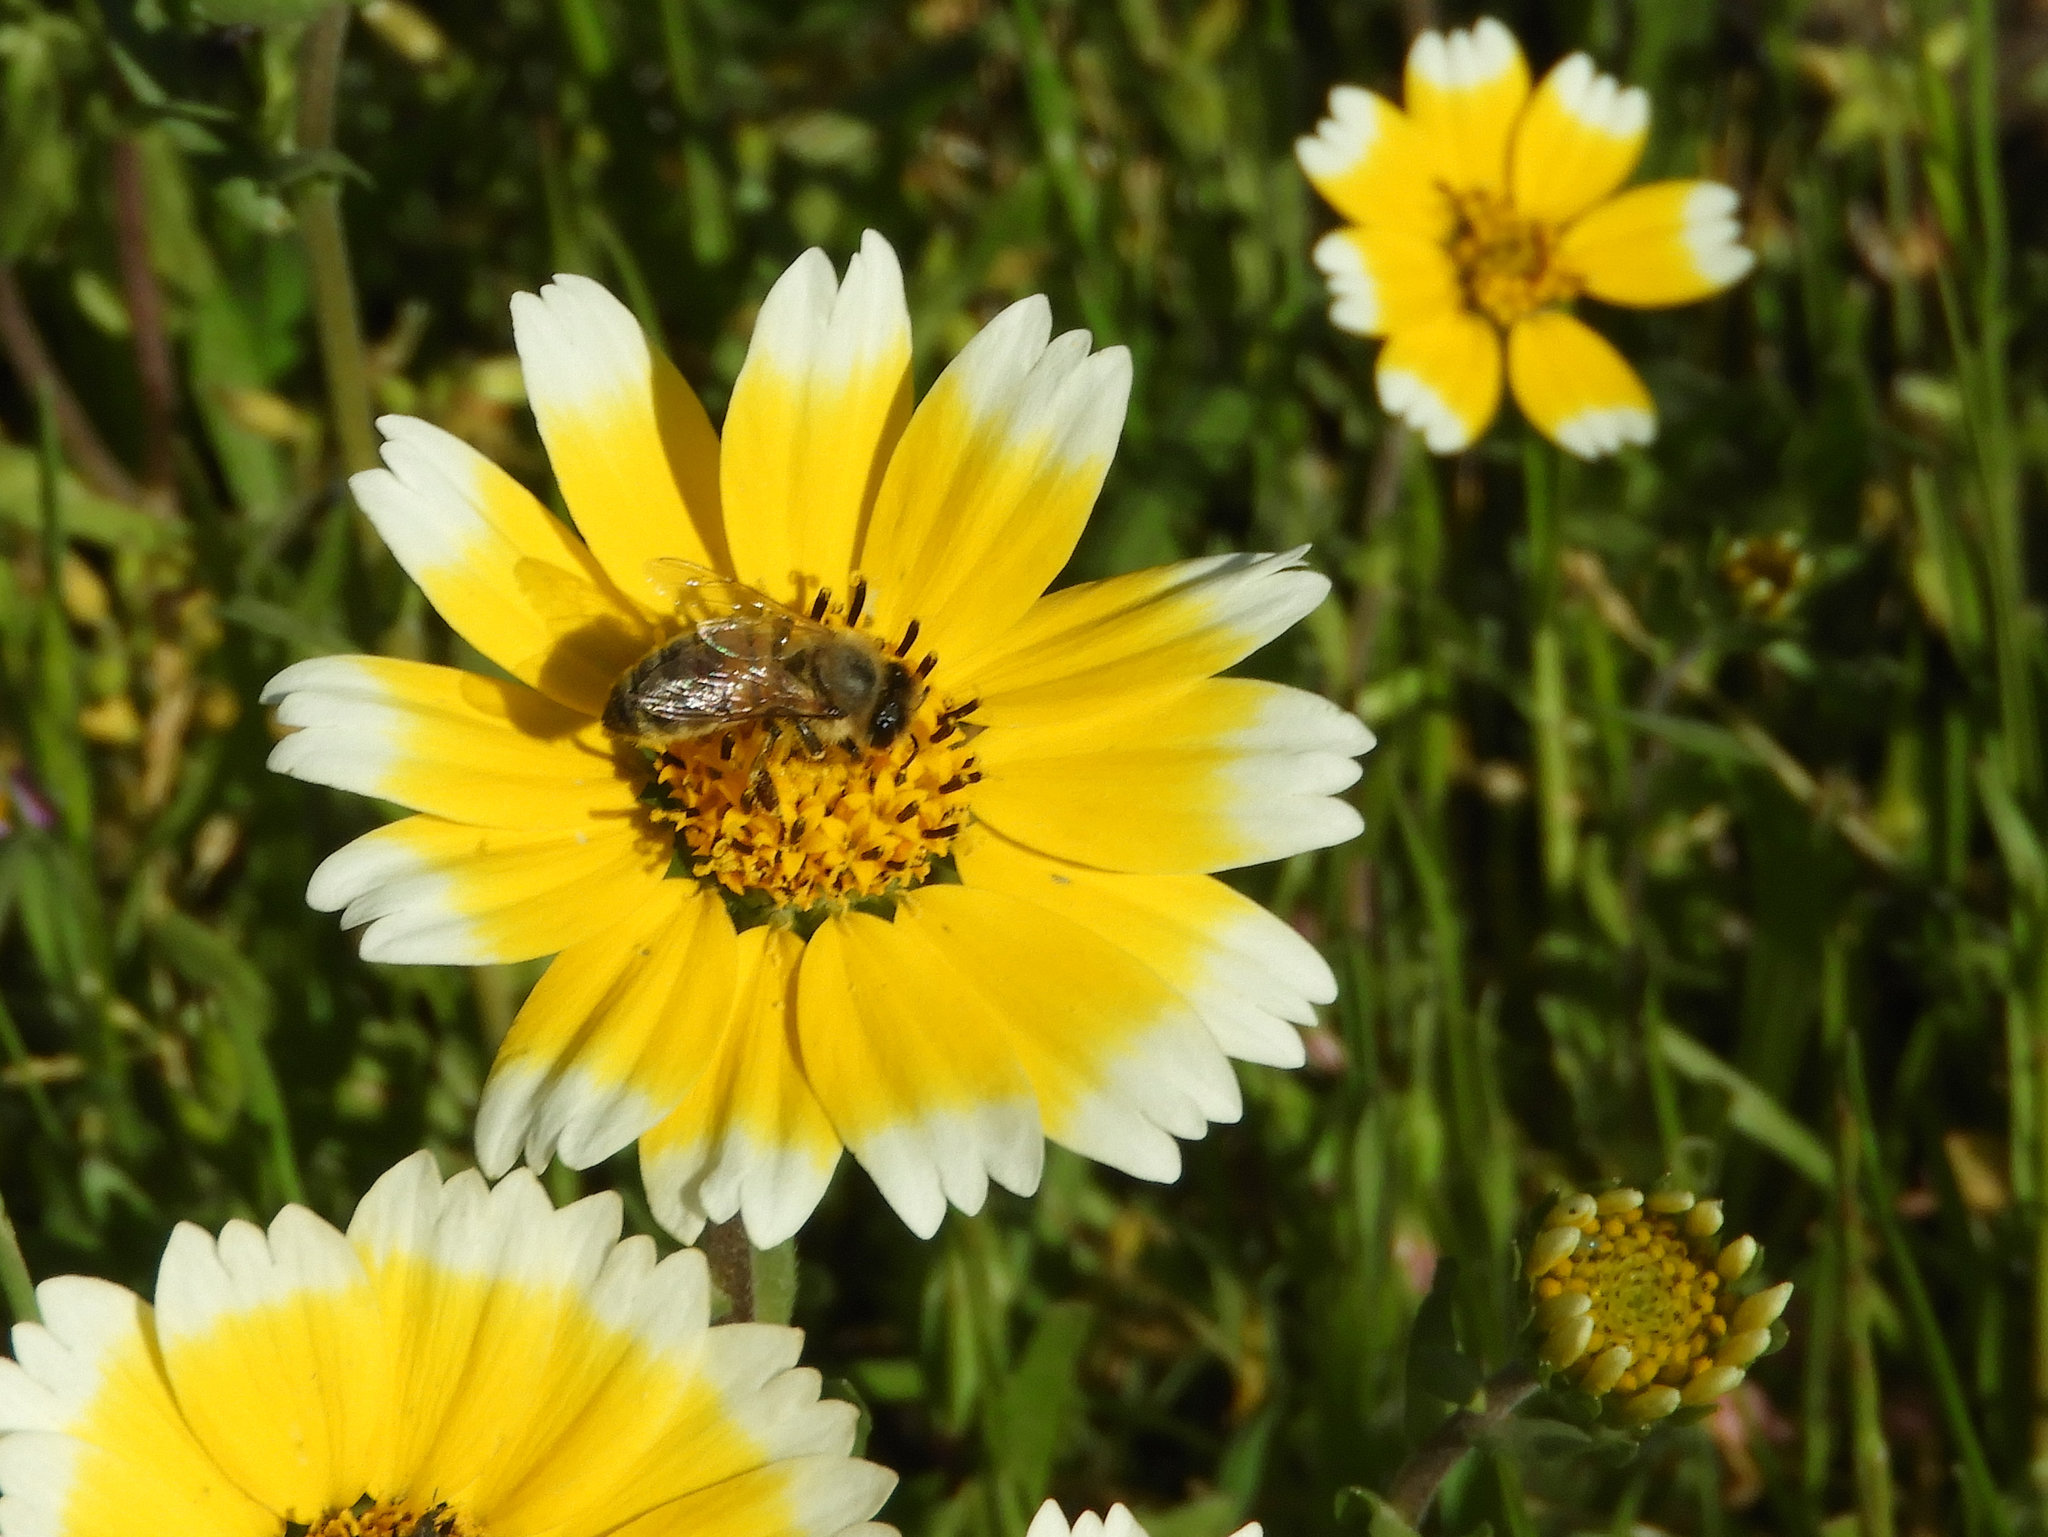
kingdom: Plantae
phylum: Tracheophyta
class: Magnoliopsida
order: Asterales
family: Asteraceae
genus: Layia
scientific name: Layia chrysanthemoides
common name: Smooth layia
